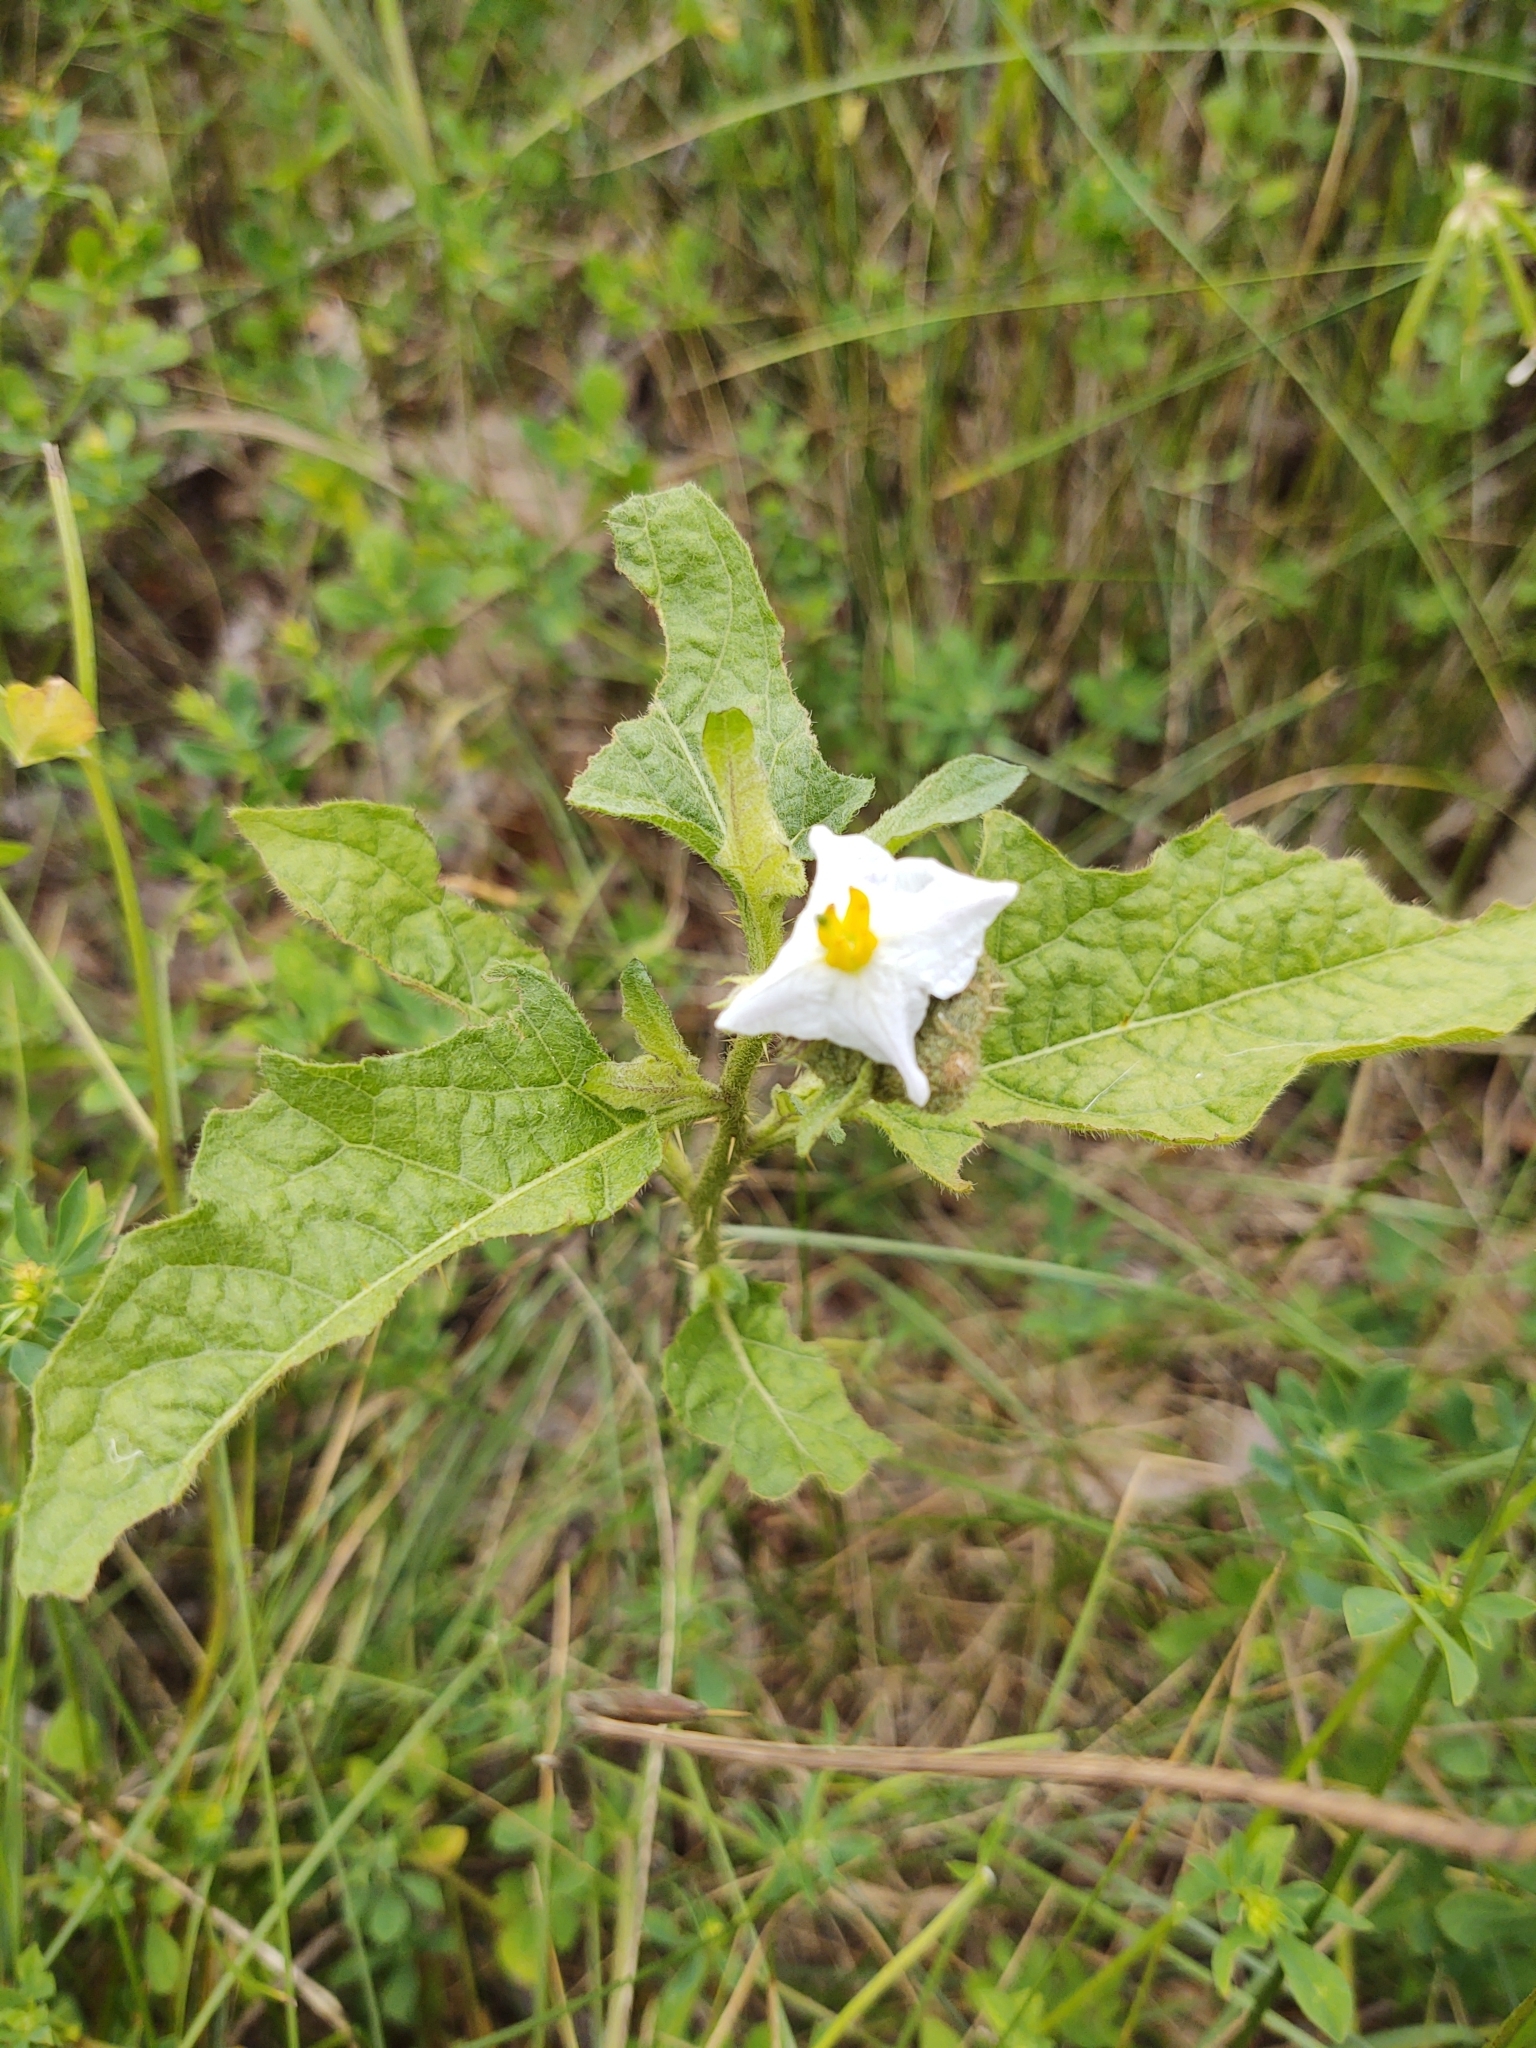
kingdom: Plantae
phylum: Tracheophyta
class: Magnoliopsida
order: Solanales
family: Solanaceae
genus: Solanum
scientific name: Solanum carolinense
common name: Horse-nettle
